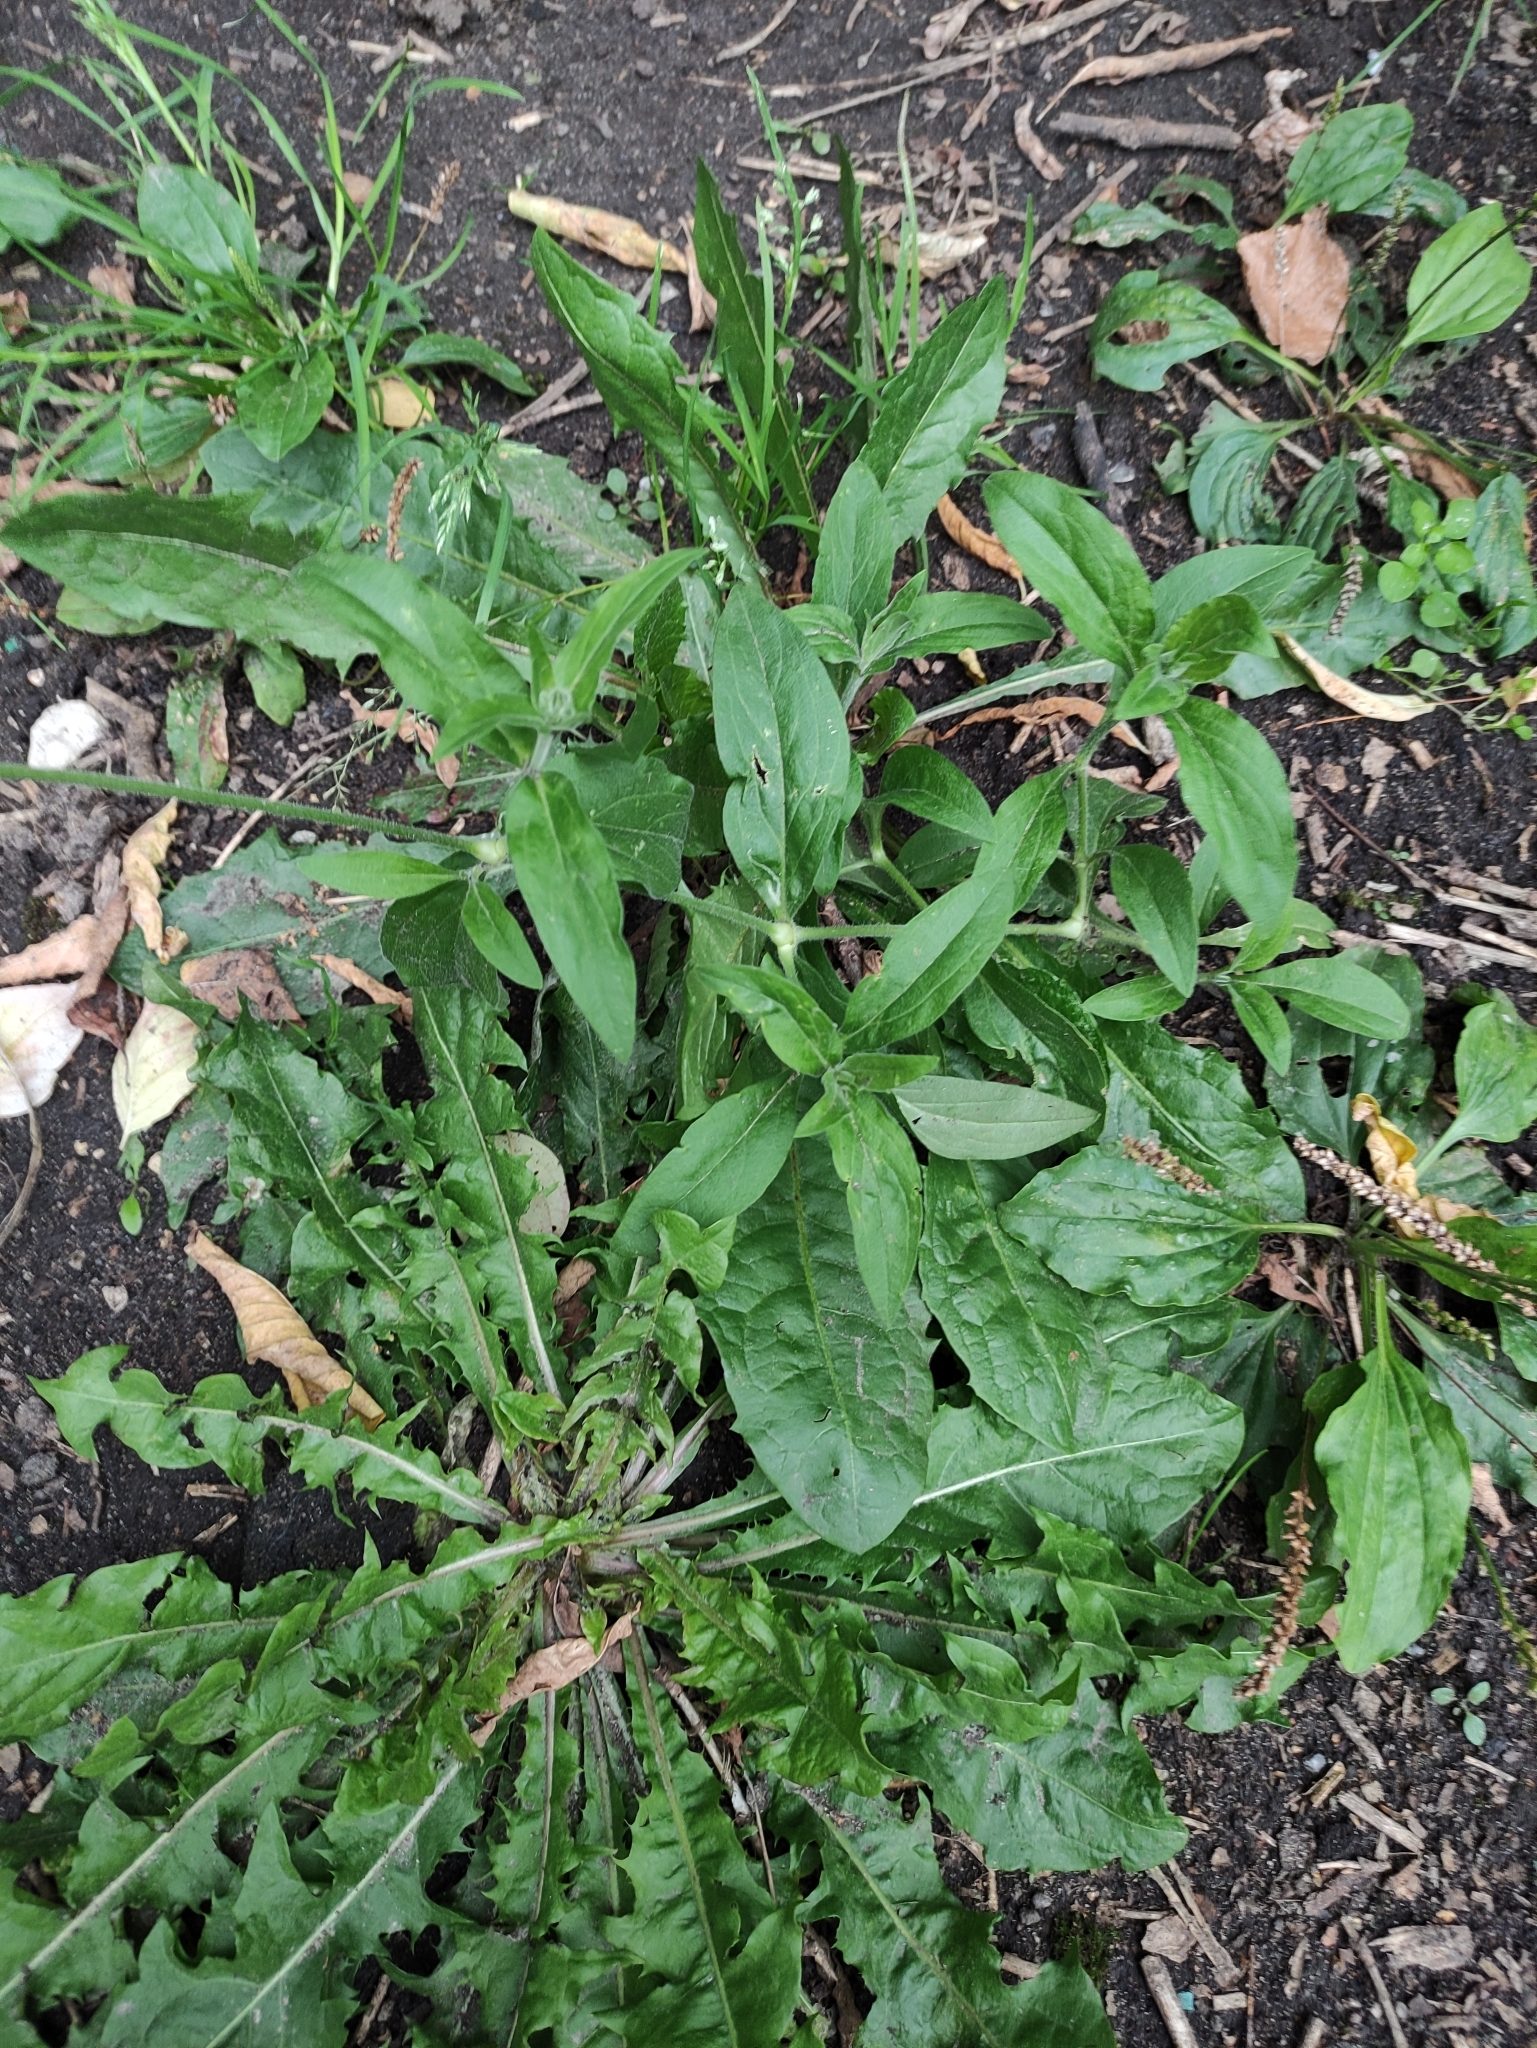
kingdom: Plantae
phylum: Tracheophyta
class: Magnoliopsida
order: Caryophyllales
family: Caryophyllaceae
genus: Silene
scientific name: Silene latifolia
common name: White campion
